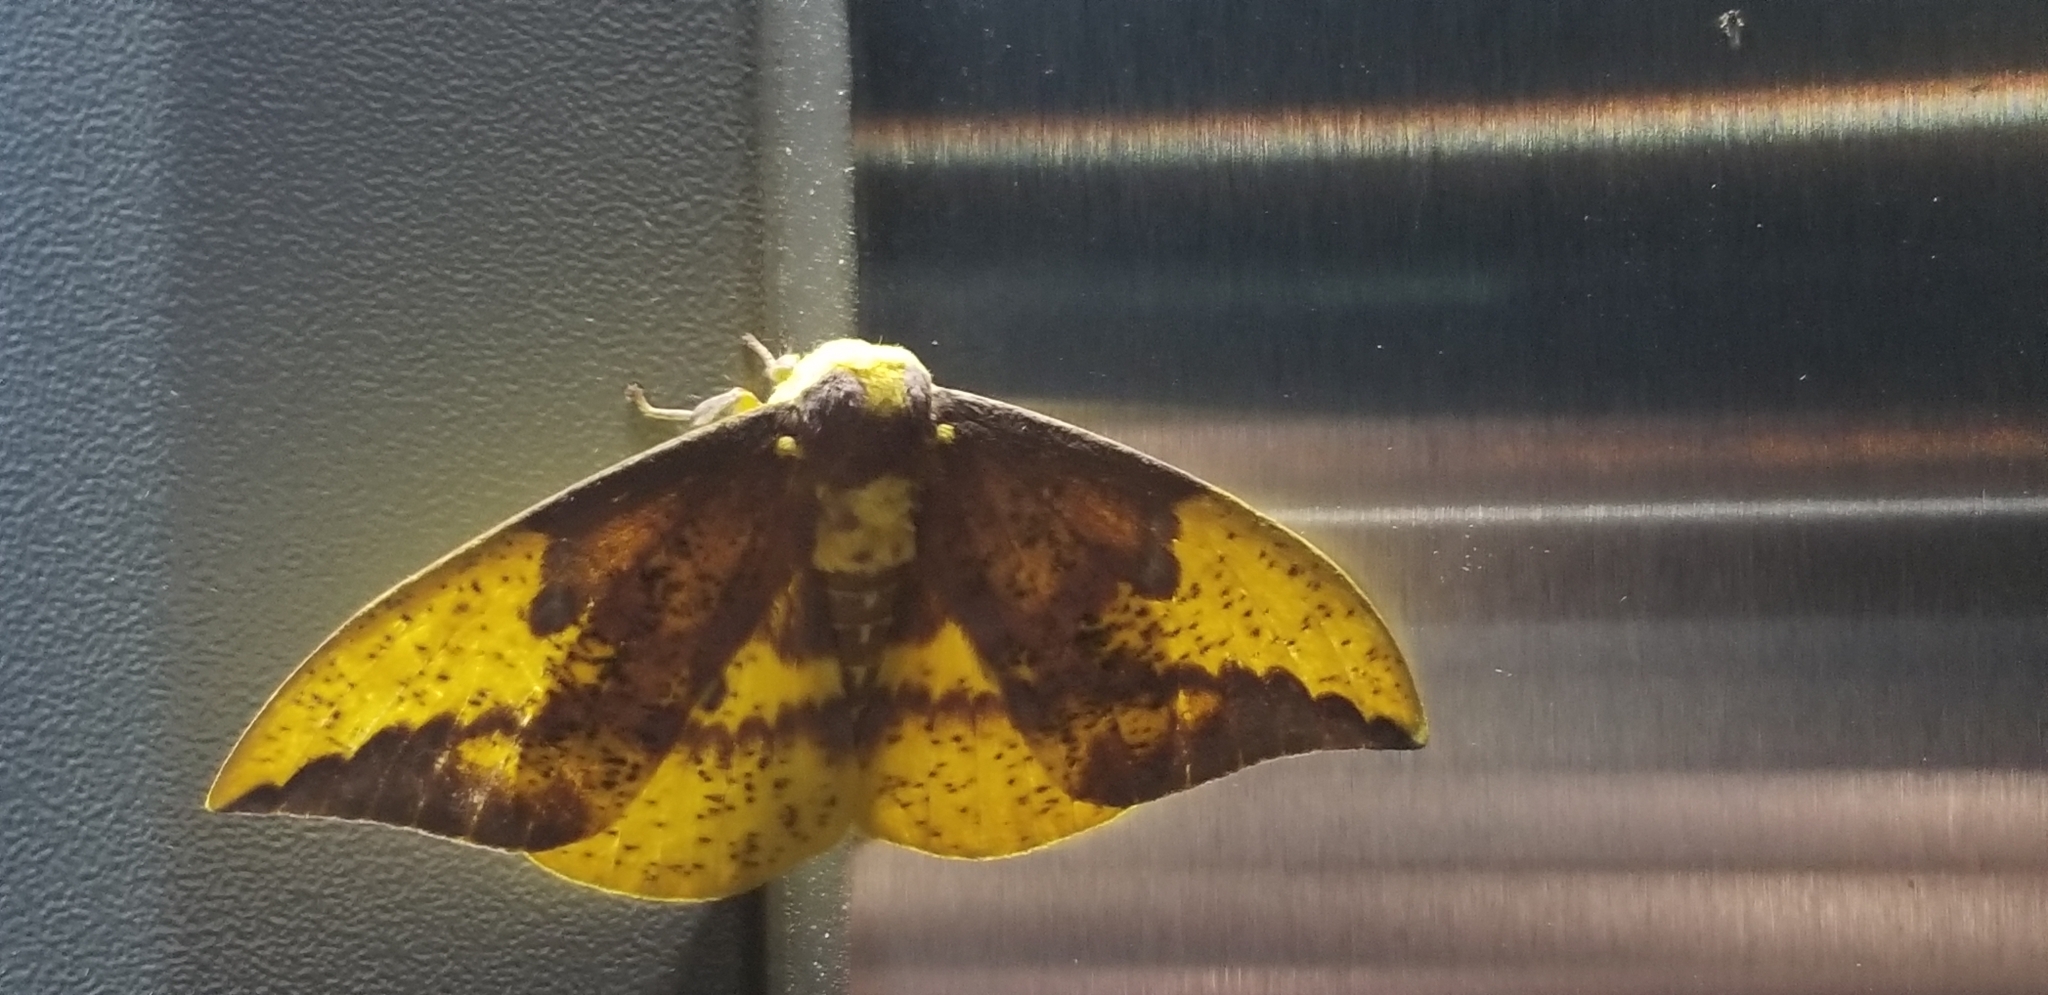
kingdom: Animalia
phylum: Arthropoda
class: Insecta
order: Lepidoptera
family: Saturniidae
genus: Eacles
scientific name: Eacles imperialis
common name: Imperial moth
